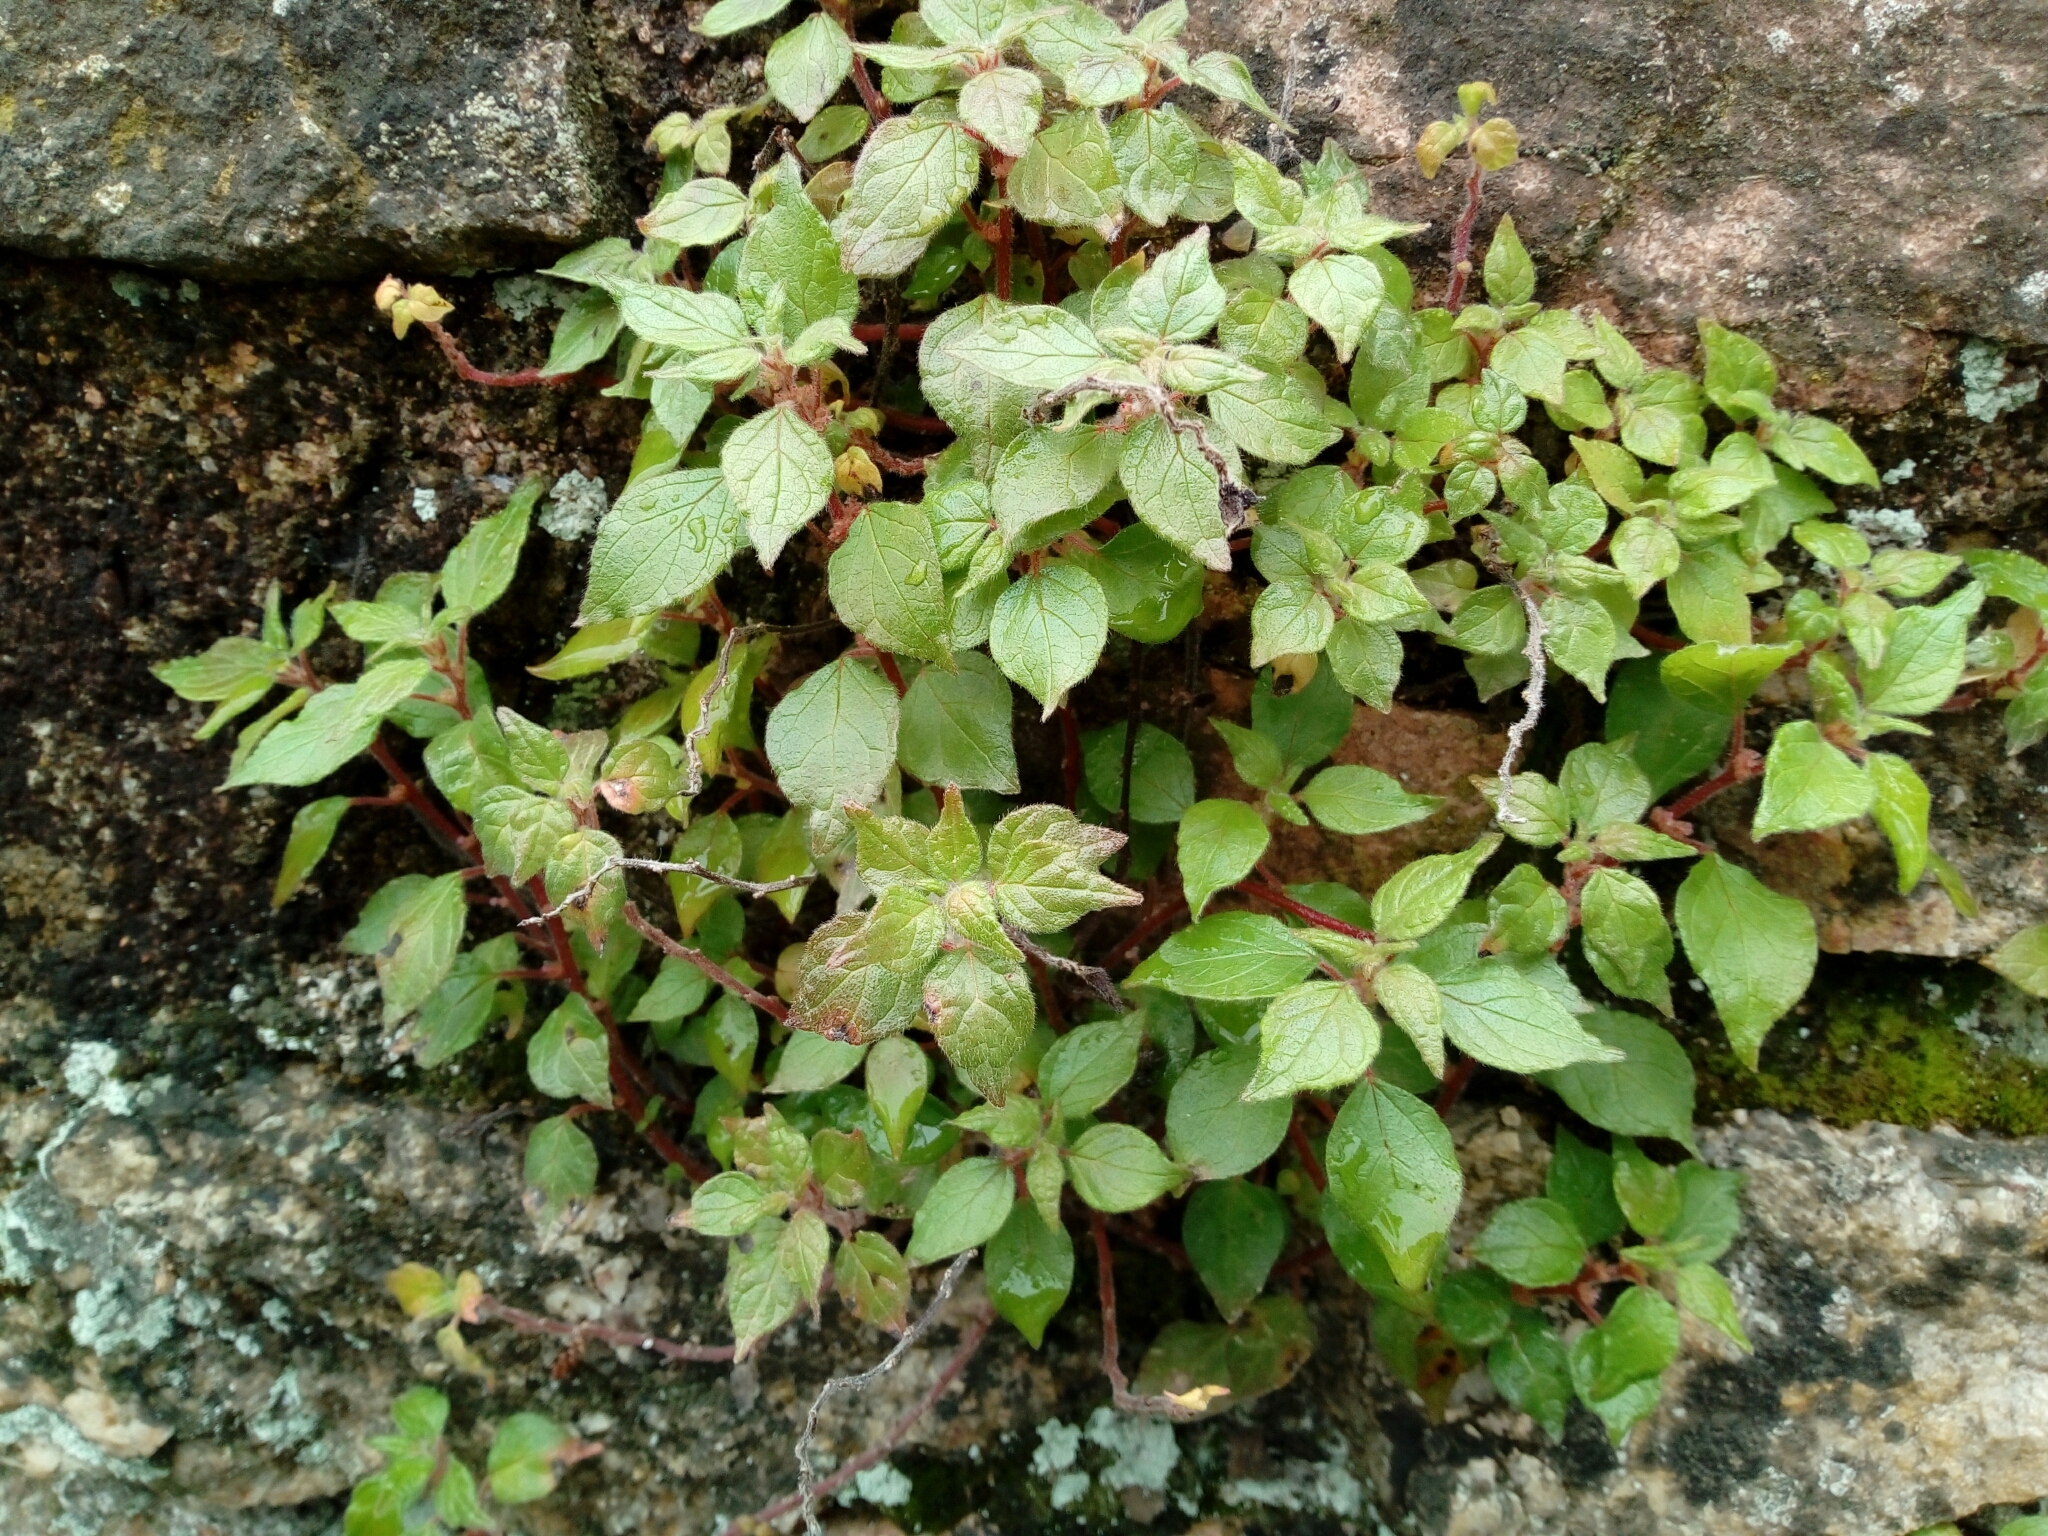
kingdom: Plantae
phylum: Tracheophyta
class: Magnoliopsida
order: Rosales
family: Urticaceae
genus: Parietaria
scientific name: Parietaria judaica
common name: Pellitory-of-the-wall
